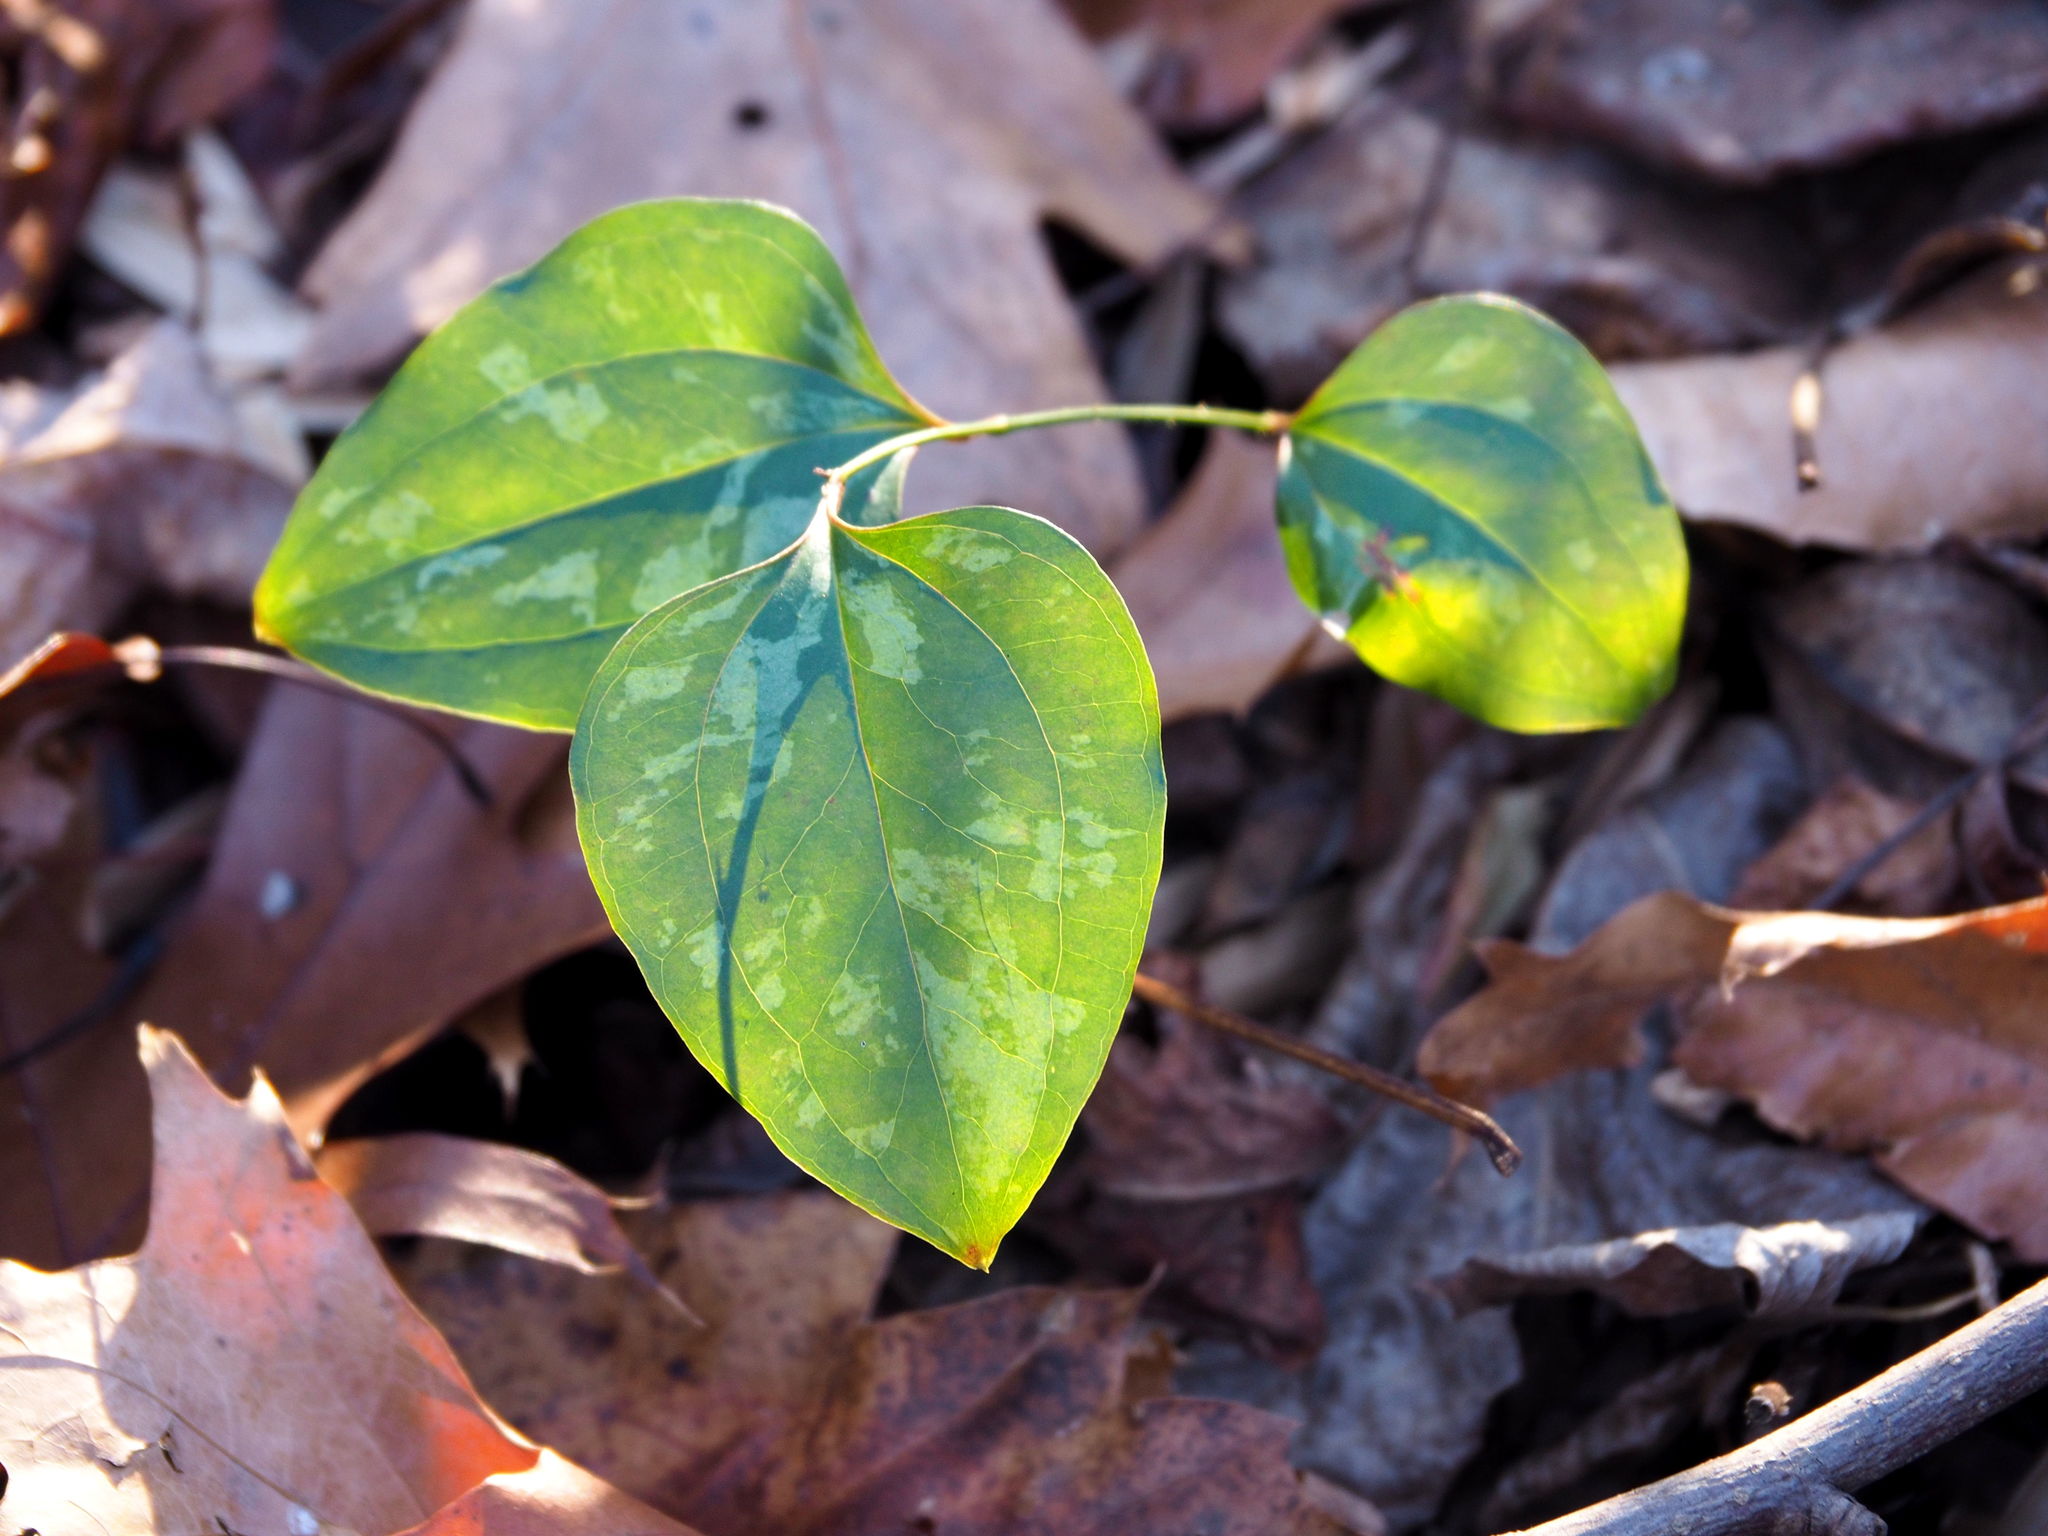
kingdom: Plantae
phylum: Tracheophyta
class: Liliopsida
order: Liliales
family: Smilacaceae
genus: Smilax
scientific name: Smilax glauca
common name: Cat greenbrier
